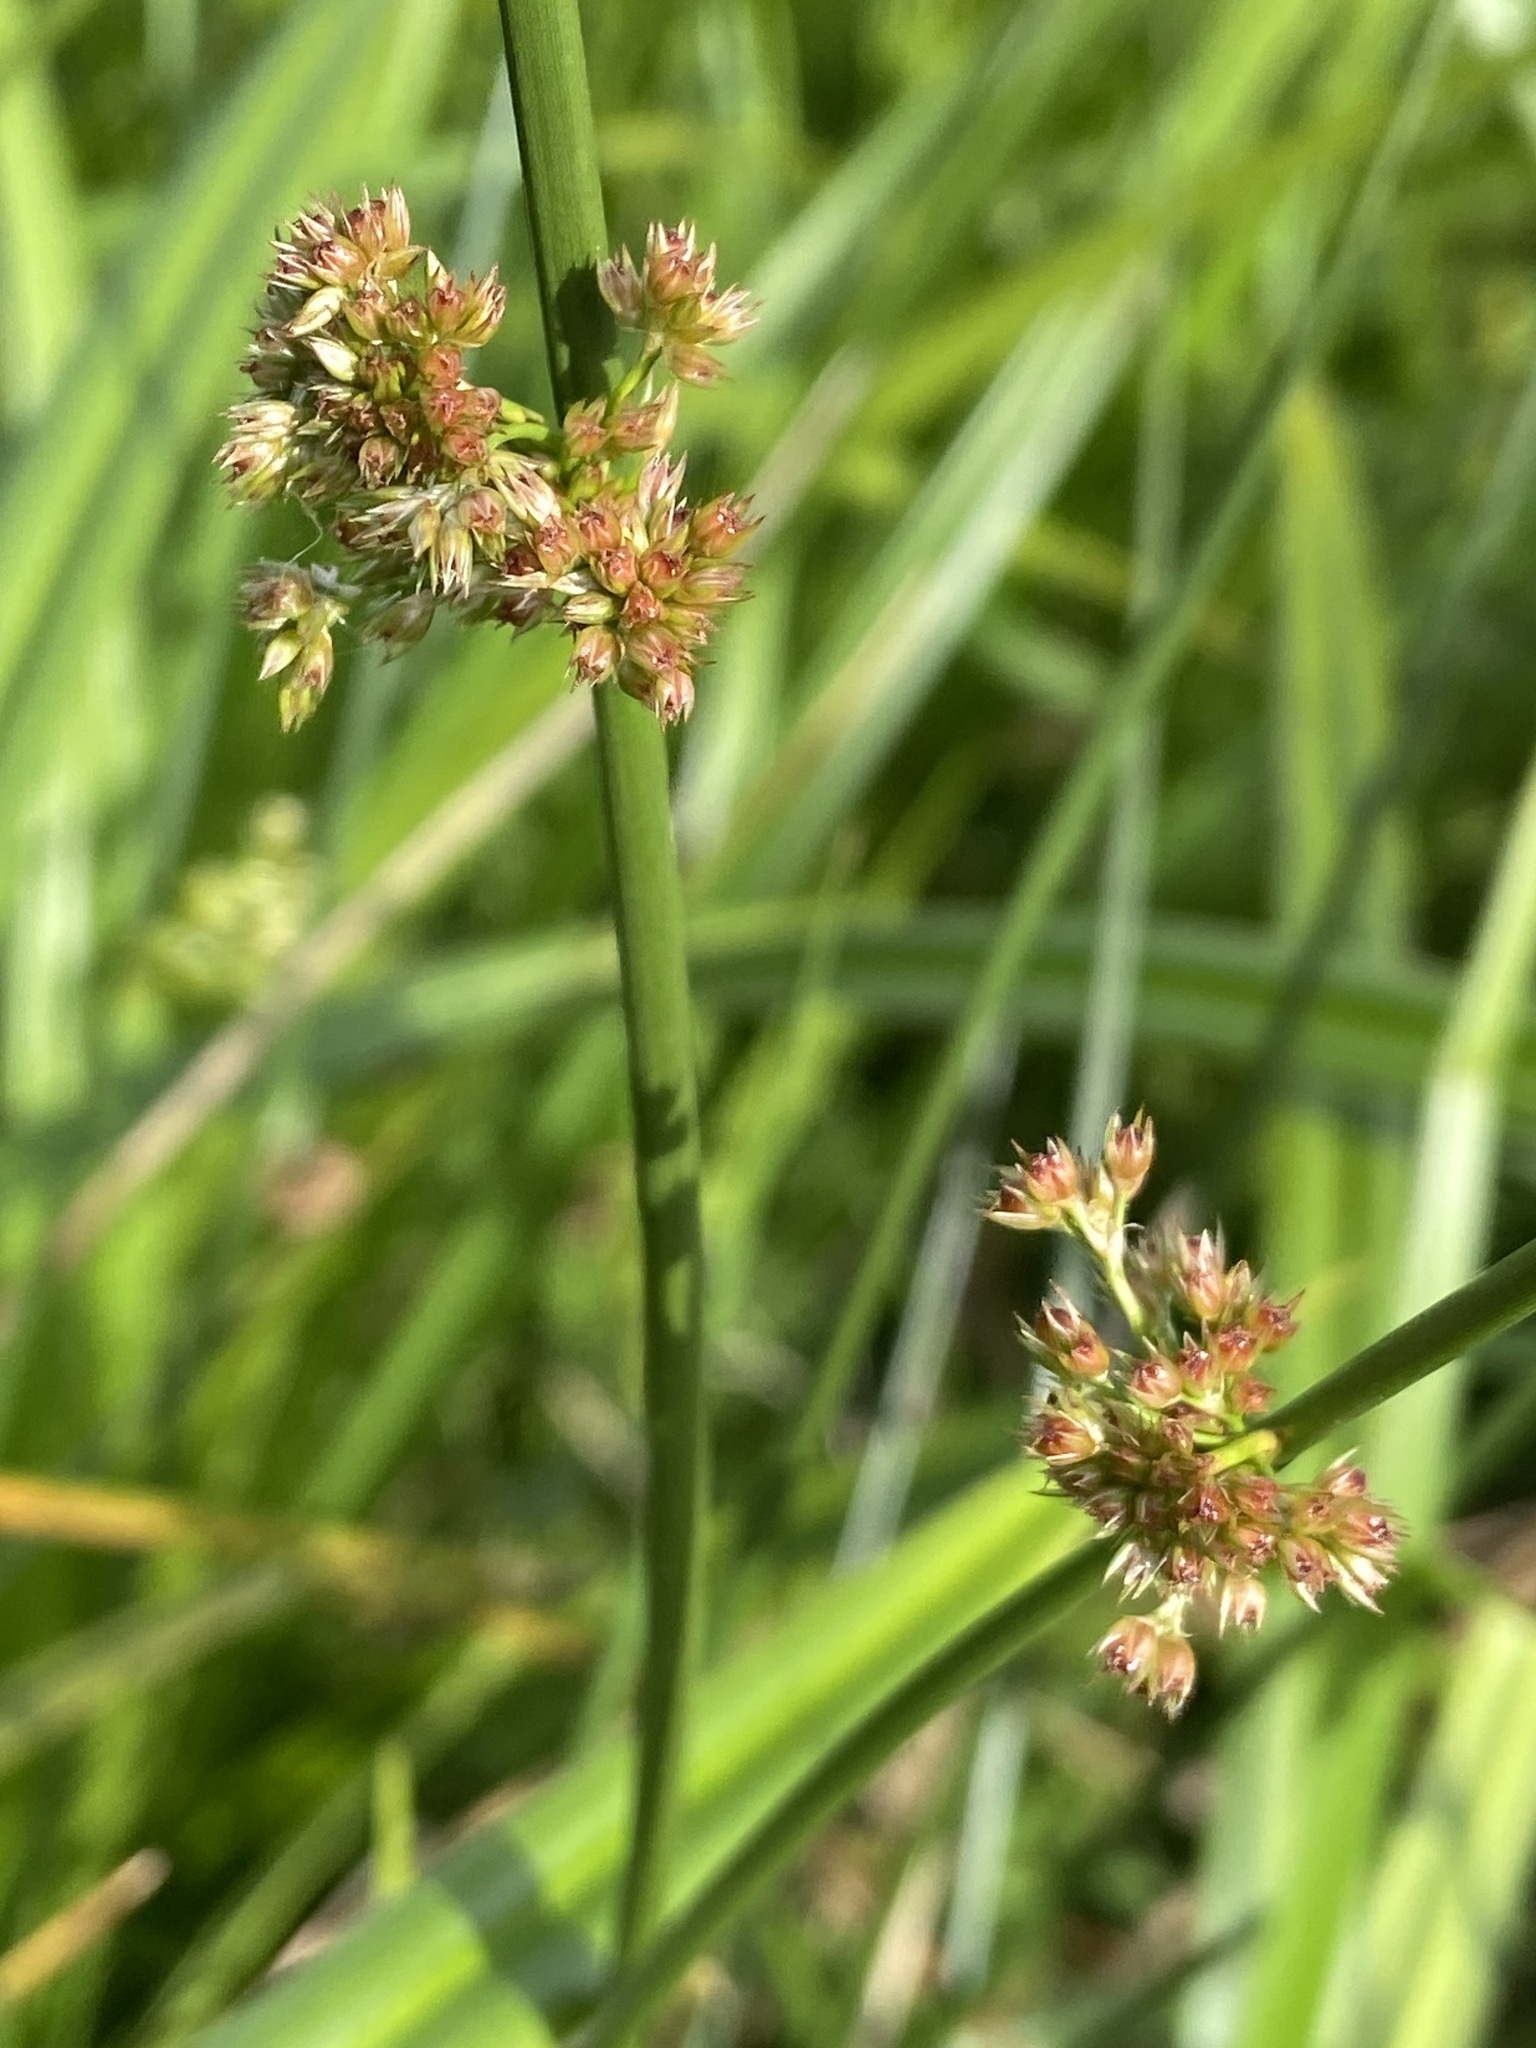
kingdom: Plantae
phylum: Tracheophyta
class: Liliopsida
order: Poales
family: Juncaceae
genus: Juncus
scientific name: Juncus effusus
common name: Soft rush
